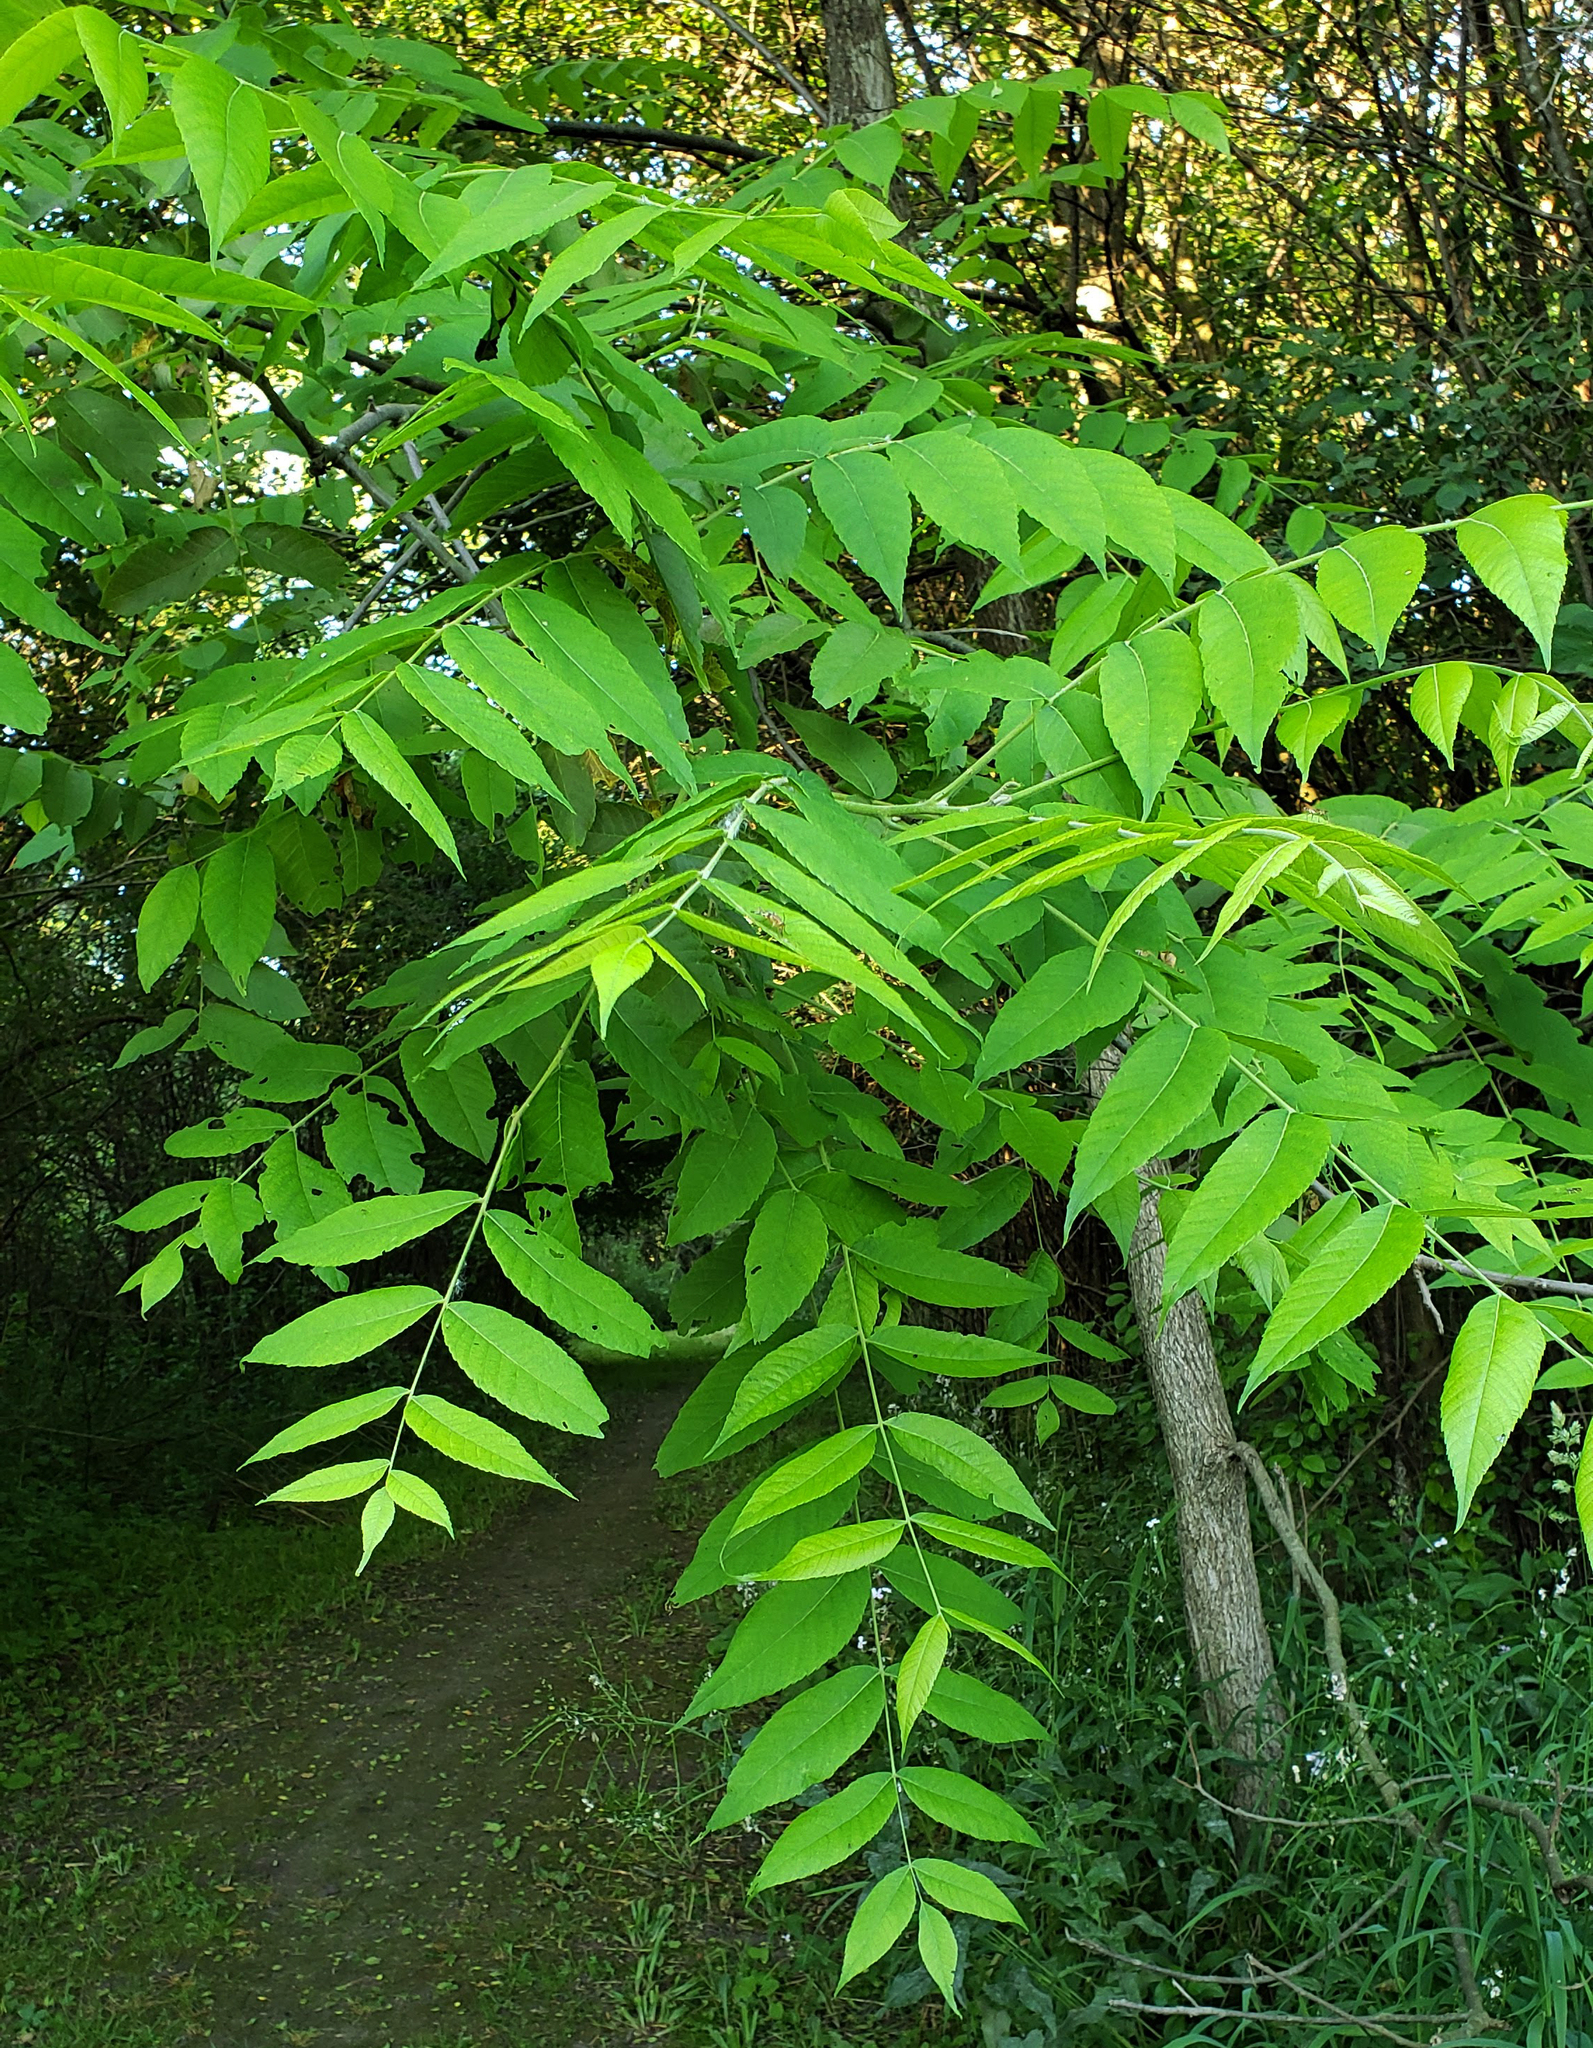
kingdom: Plantae
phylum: Tracheophyta
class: Magnoliopsida
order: Fagales
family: Juglandaceae
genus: Juglans
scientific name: Juglans nigra
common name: Black walnut
